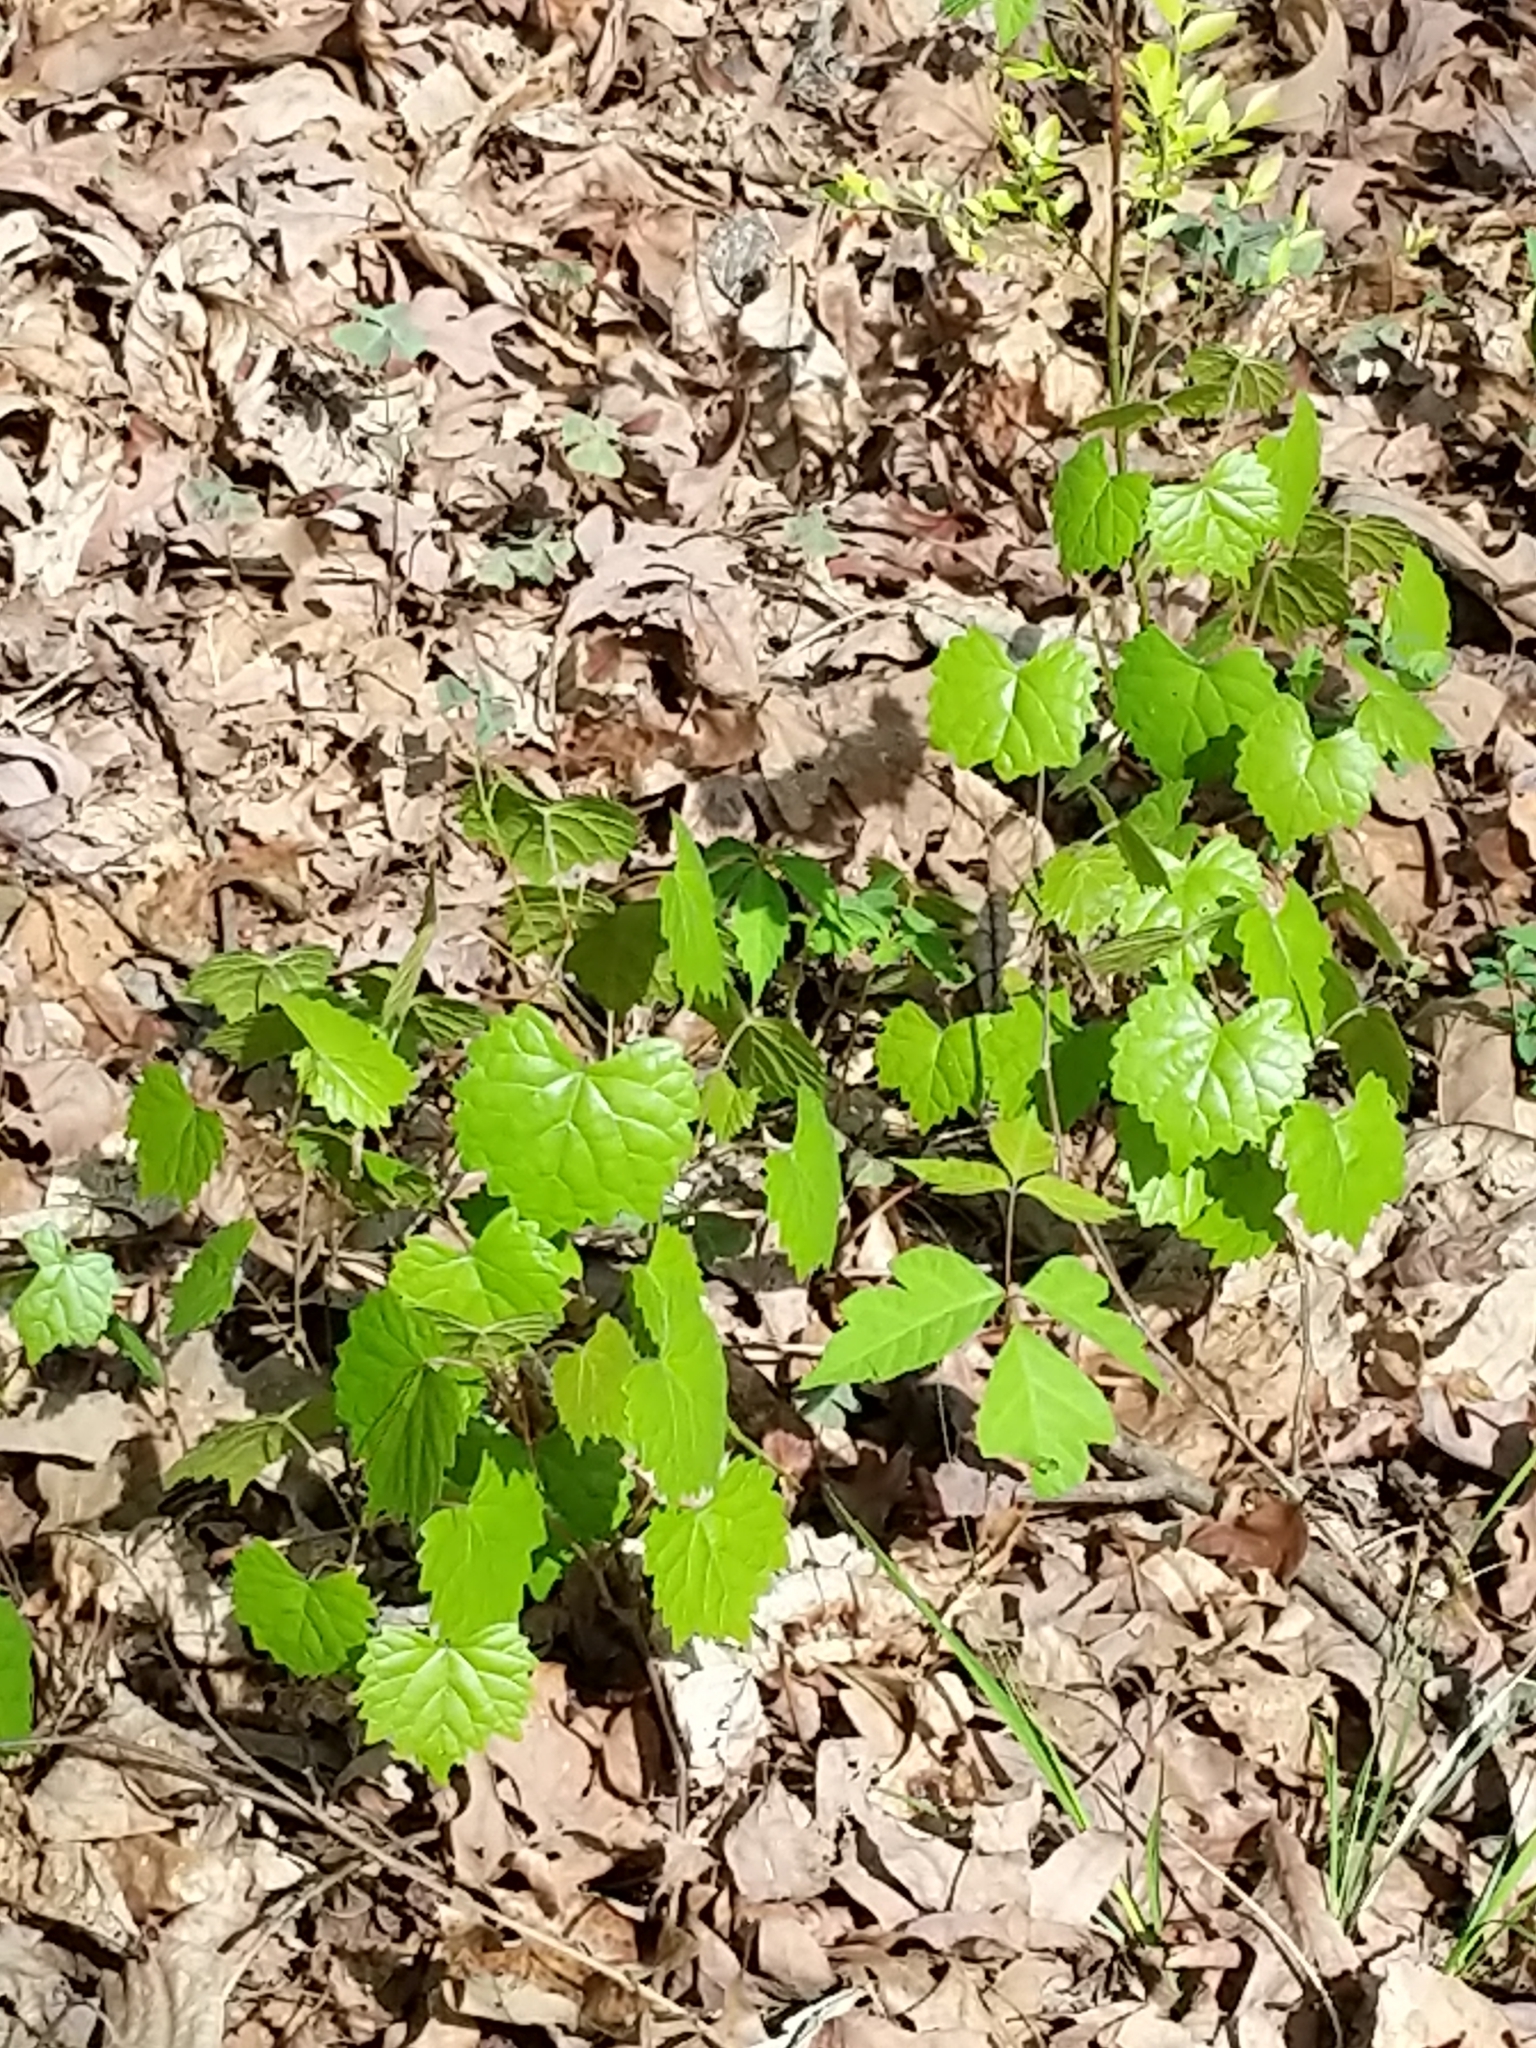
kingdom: Plantae
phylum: Tracheophyta
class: Magnoliopsida
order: Vitales
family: Vitaceae
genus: Vitis
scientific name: Vitis rotundifolia
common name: Muscadine grape
